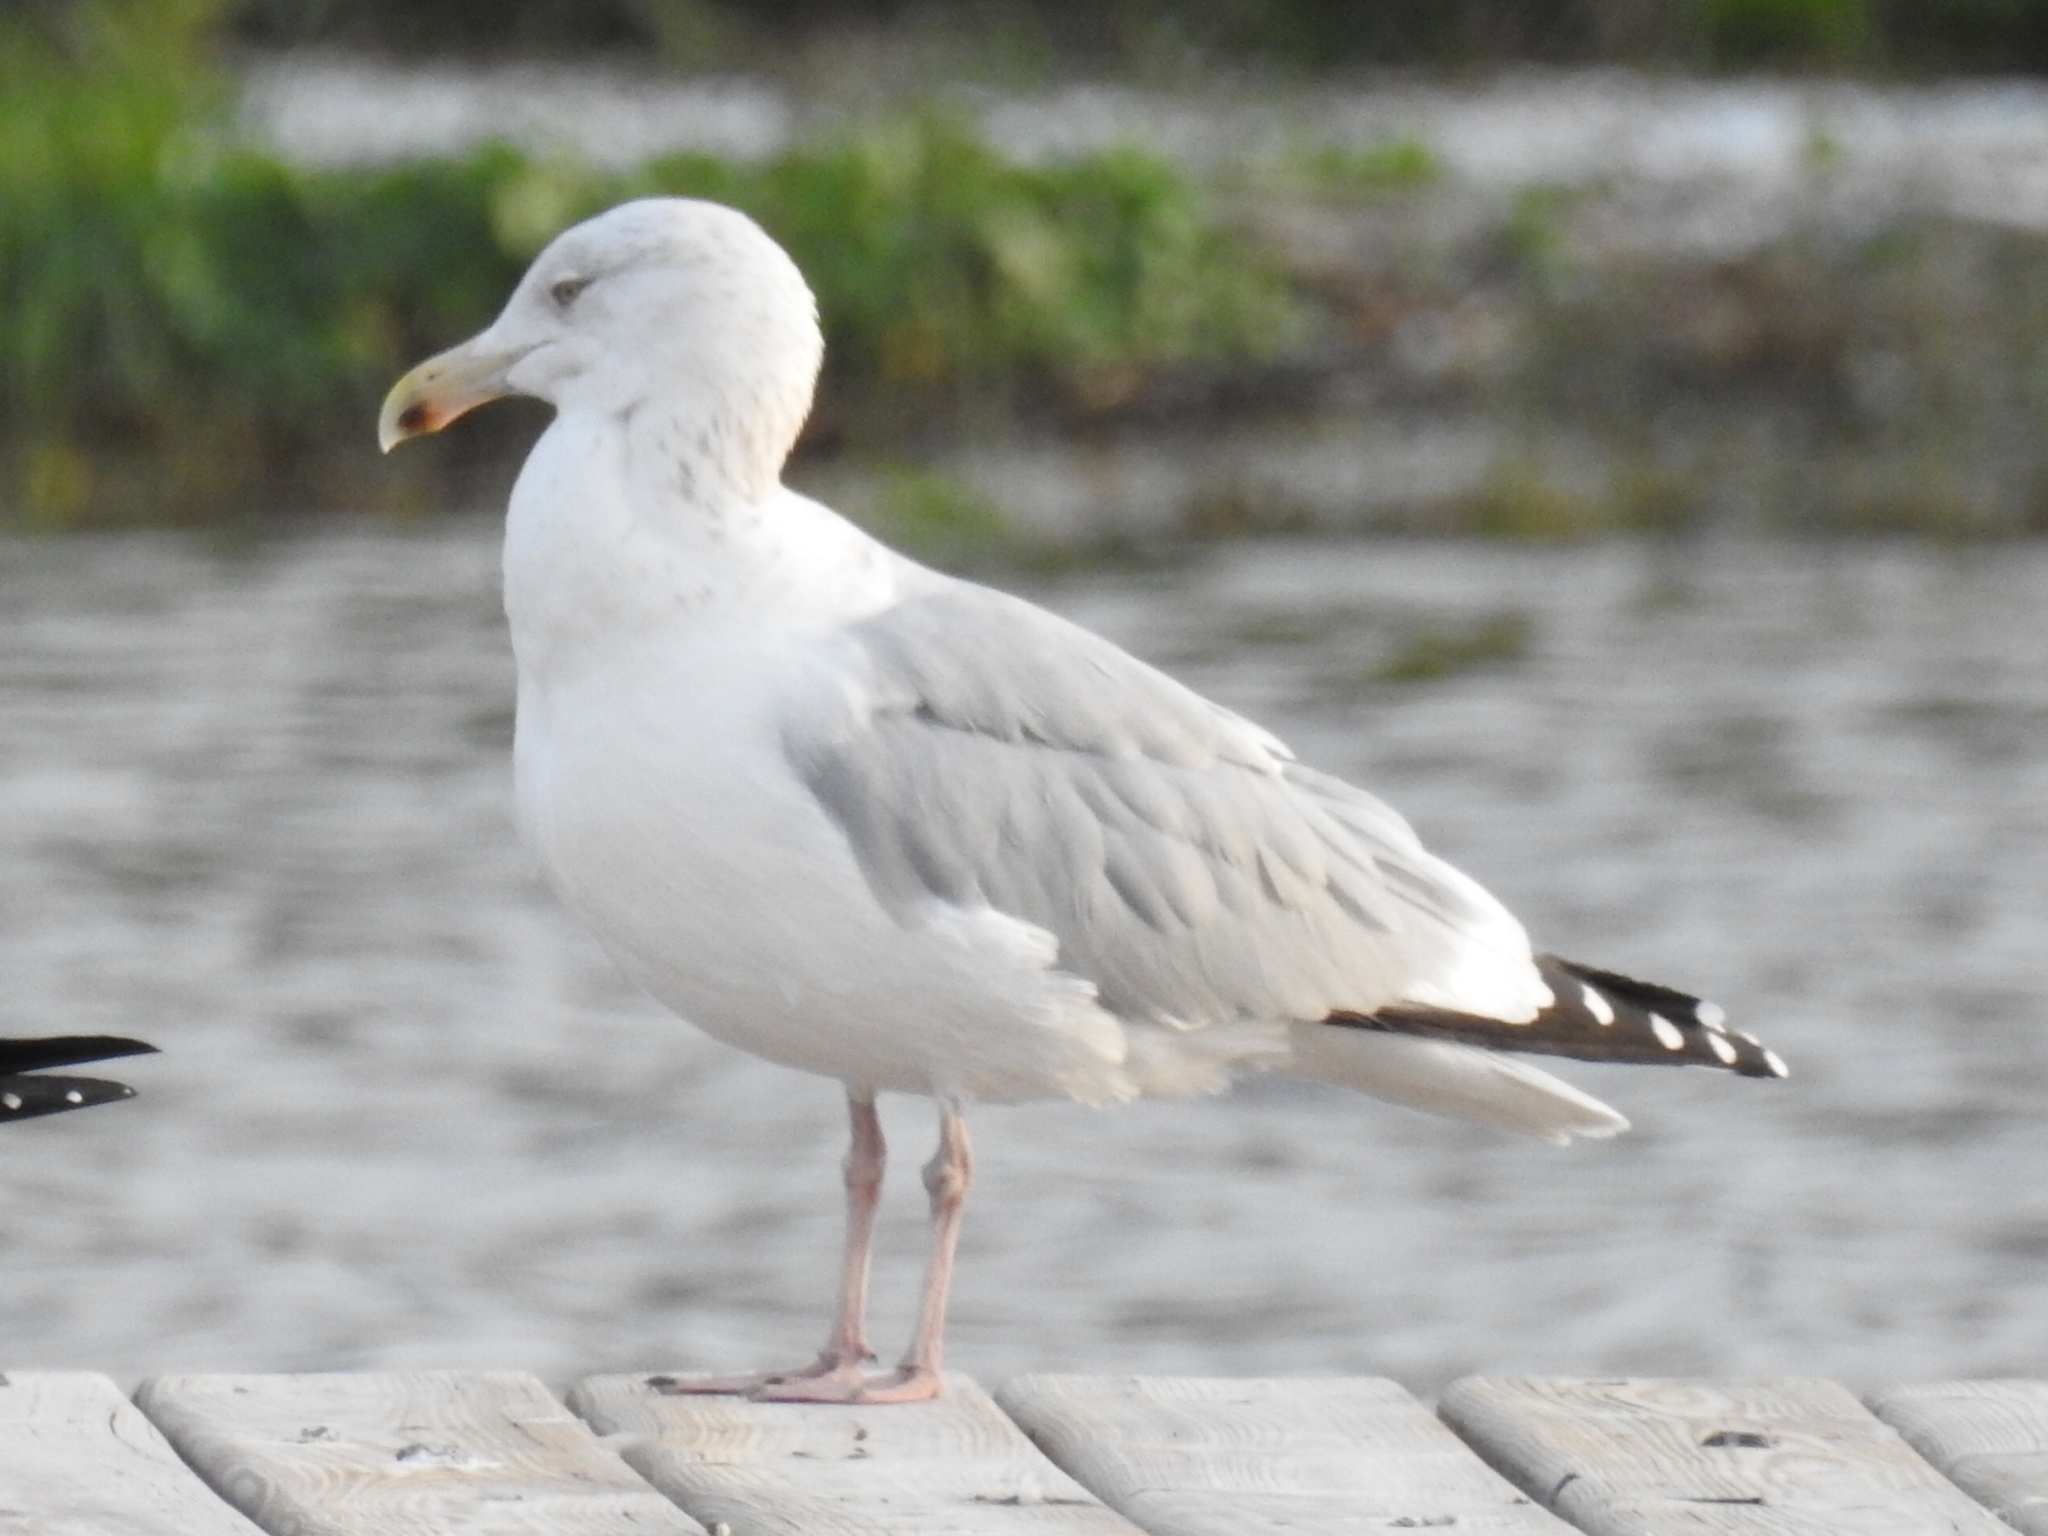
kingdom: Animalia
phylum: Chordata
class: Aves
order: Charadriiformes
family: Laridae
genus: Larus
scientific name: Larus argentatus
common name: Herring gull
